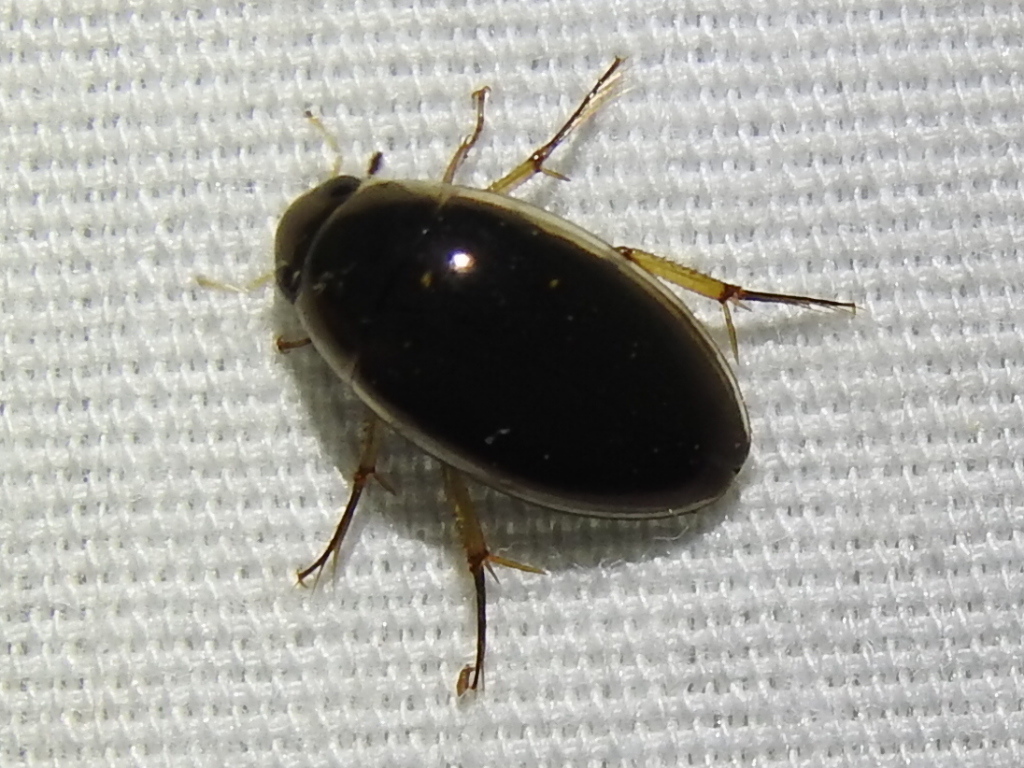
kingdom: Animalia
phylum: Arthropoda
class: Insecta
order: Coleoptera
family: Hydrophilidae
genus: Tropisternus
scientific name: Tropisternus lateralis
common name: Lateral-banded water scavenger beetle
